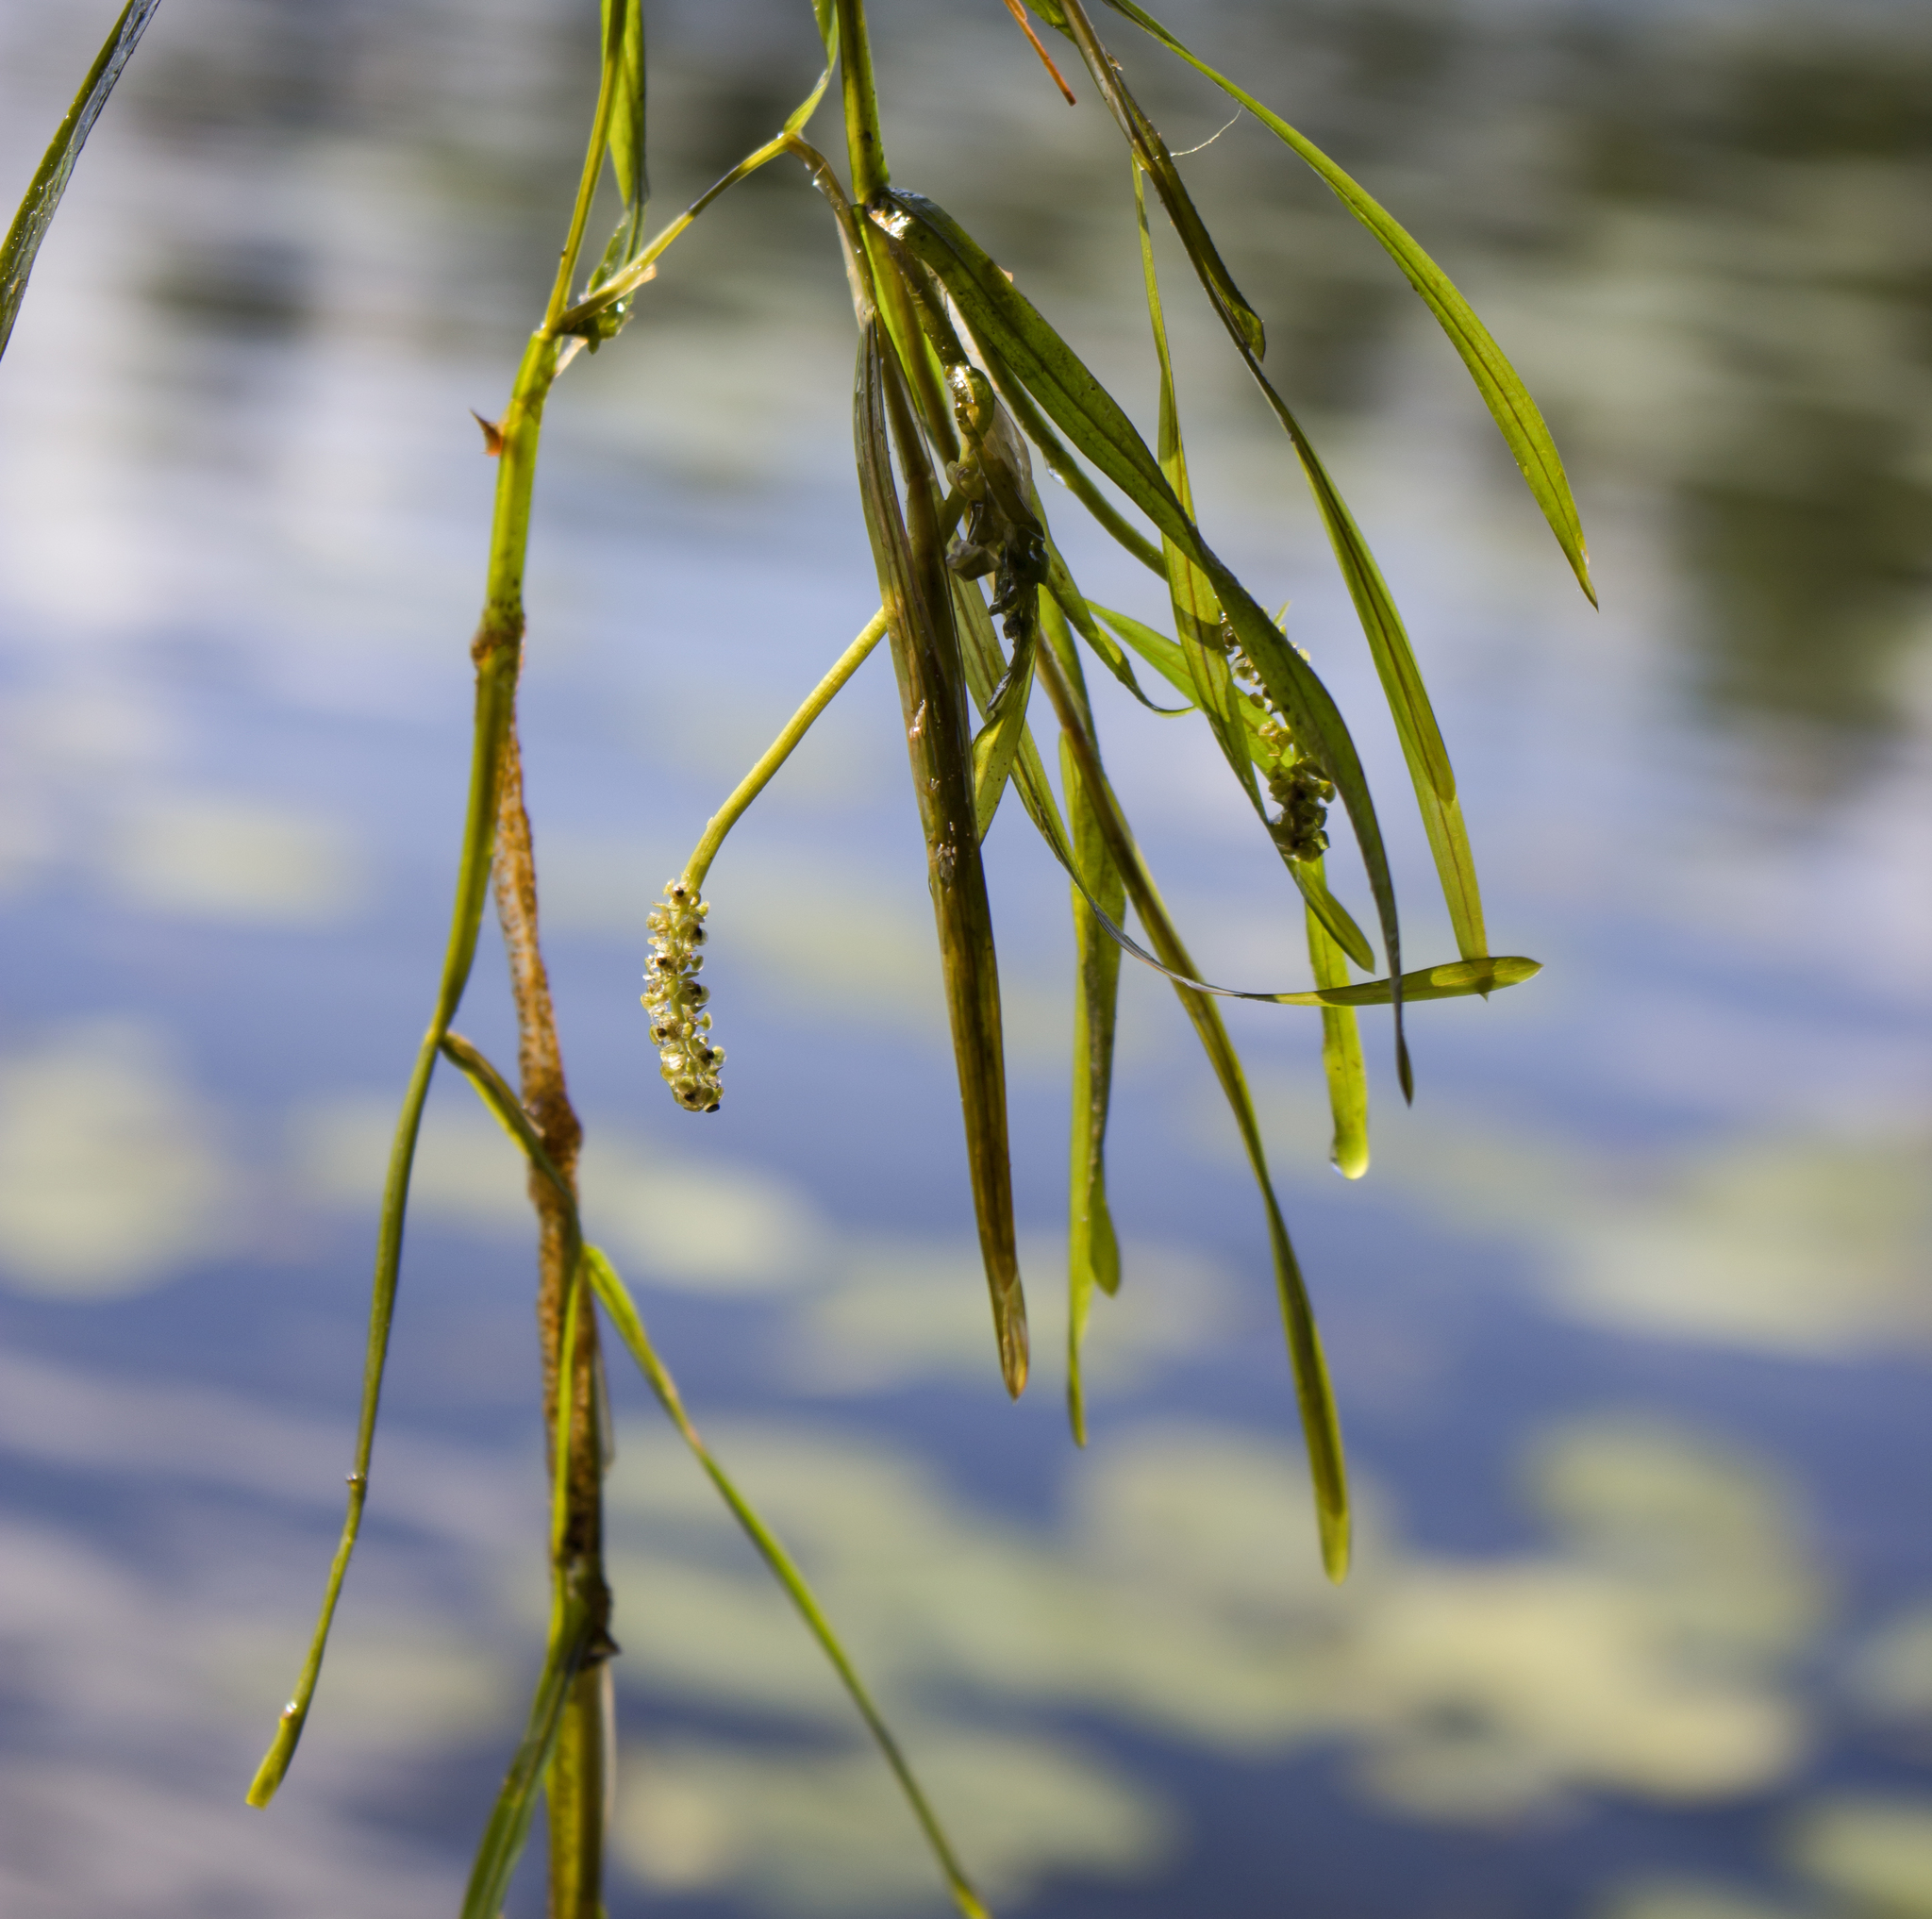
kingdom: Plantae
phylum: Tracheophyta
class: Liliopsida
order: Alismatales
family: Potamogetonaceae
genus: Potamogeton
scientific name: Potamogeton zosteriformis
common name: Eelgrass pondweed
